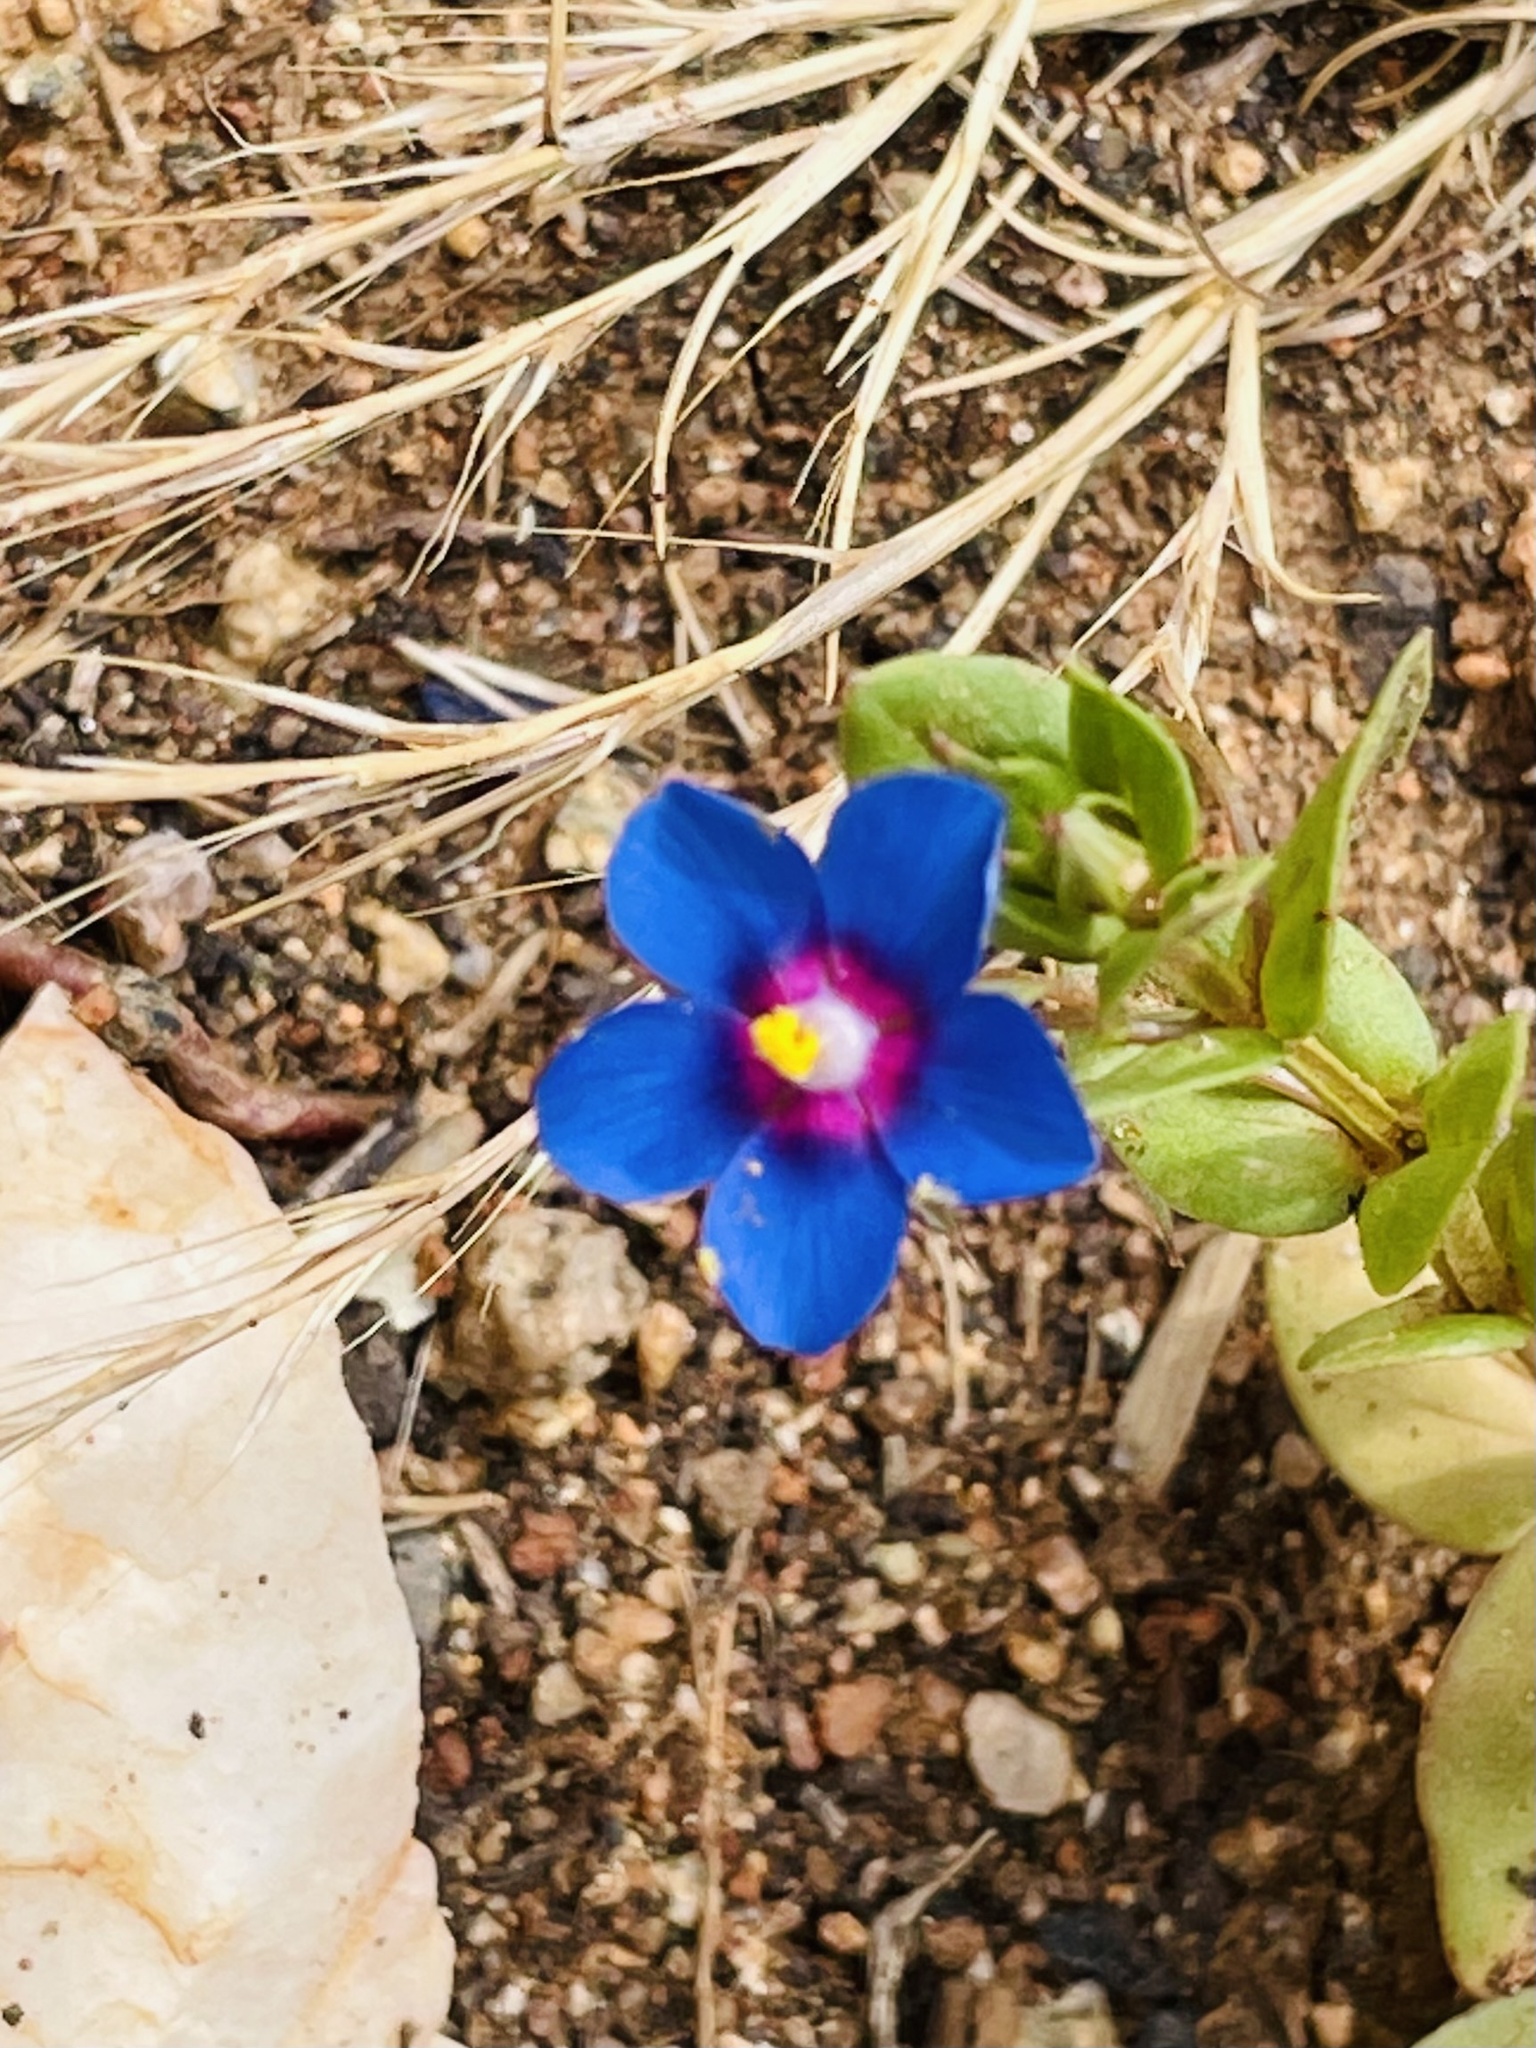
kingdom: Plantae
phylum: Tracheophyta
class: Magnoliopsida
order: Ericales
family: Primulaceae
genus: Lysimachia
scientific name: Lysimachia loeflingii
